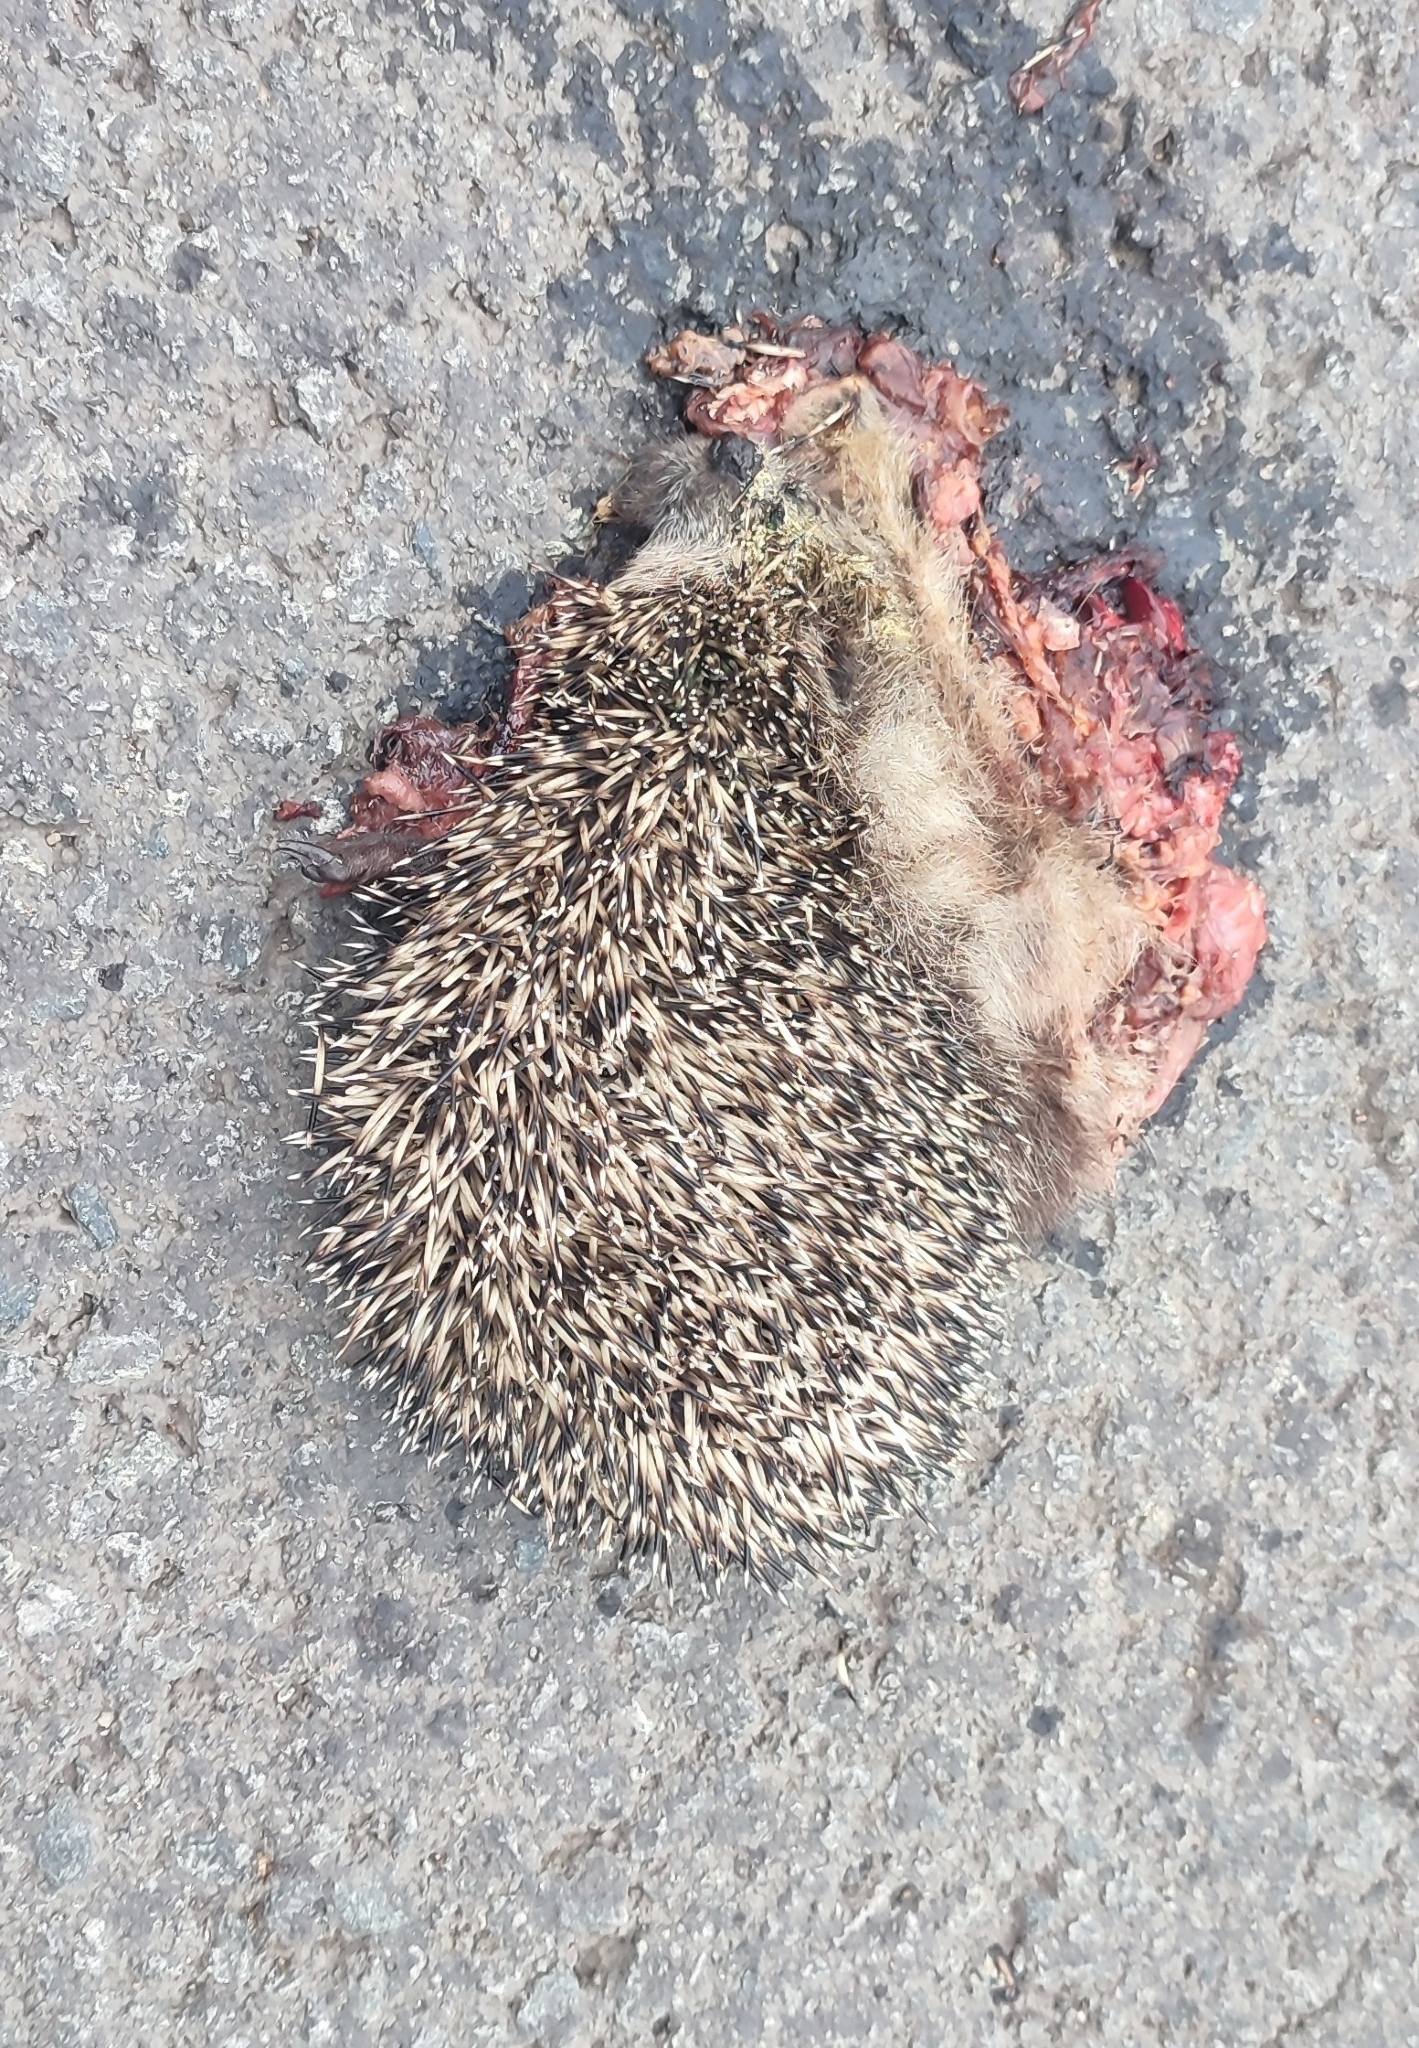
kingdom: Animalia
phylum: Chordata
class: Mammalia
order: Erinaceomorpha
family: Erinaceidae
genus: Erinaceus
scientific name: Erinaceus roumanicus
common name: Northern white-breasted hedgehog
